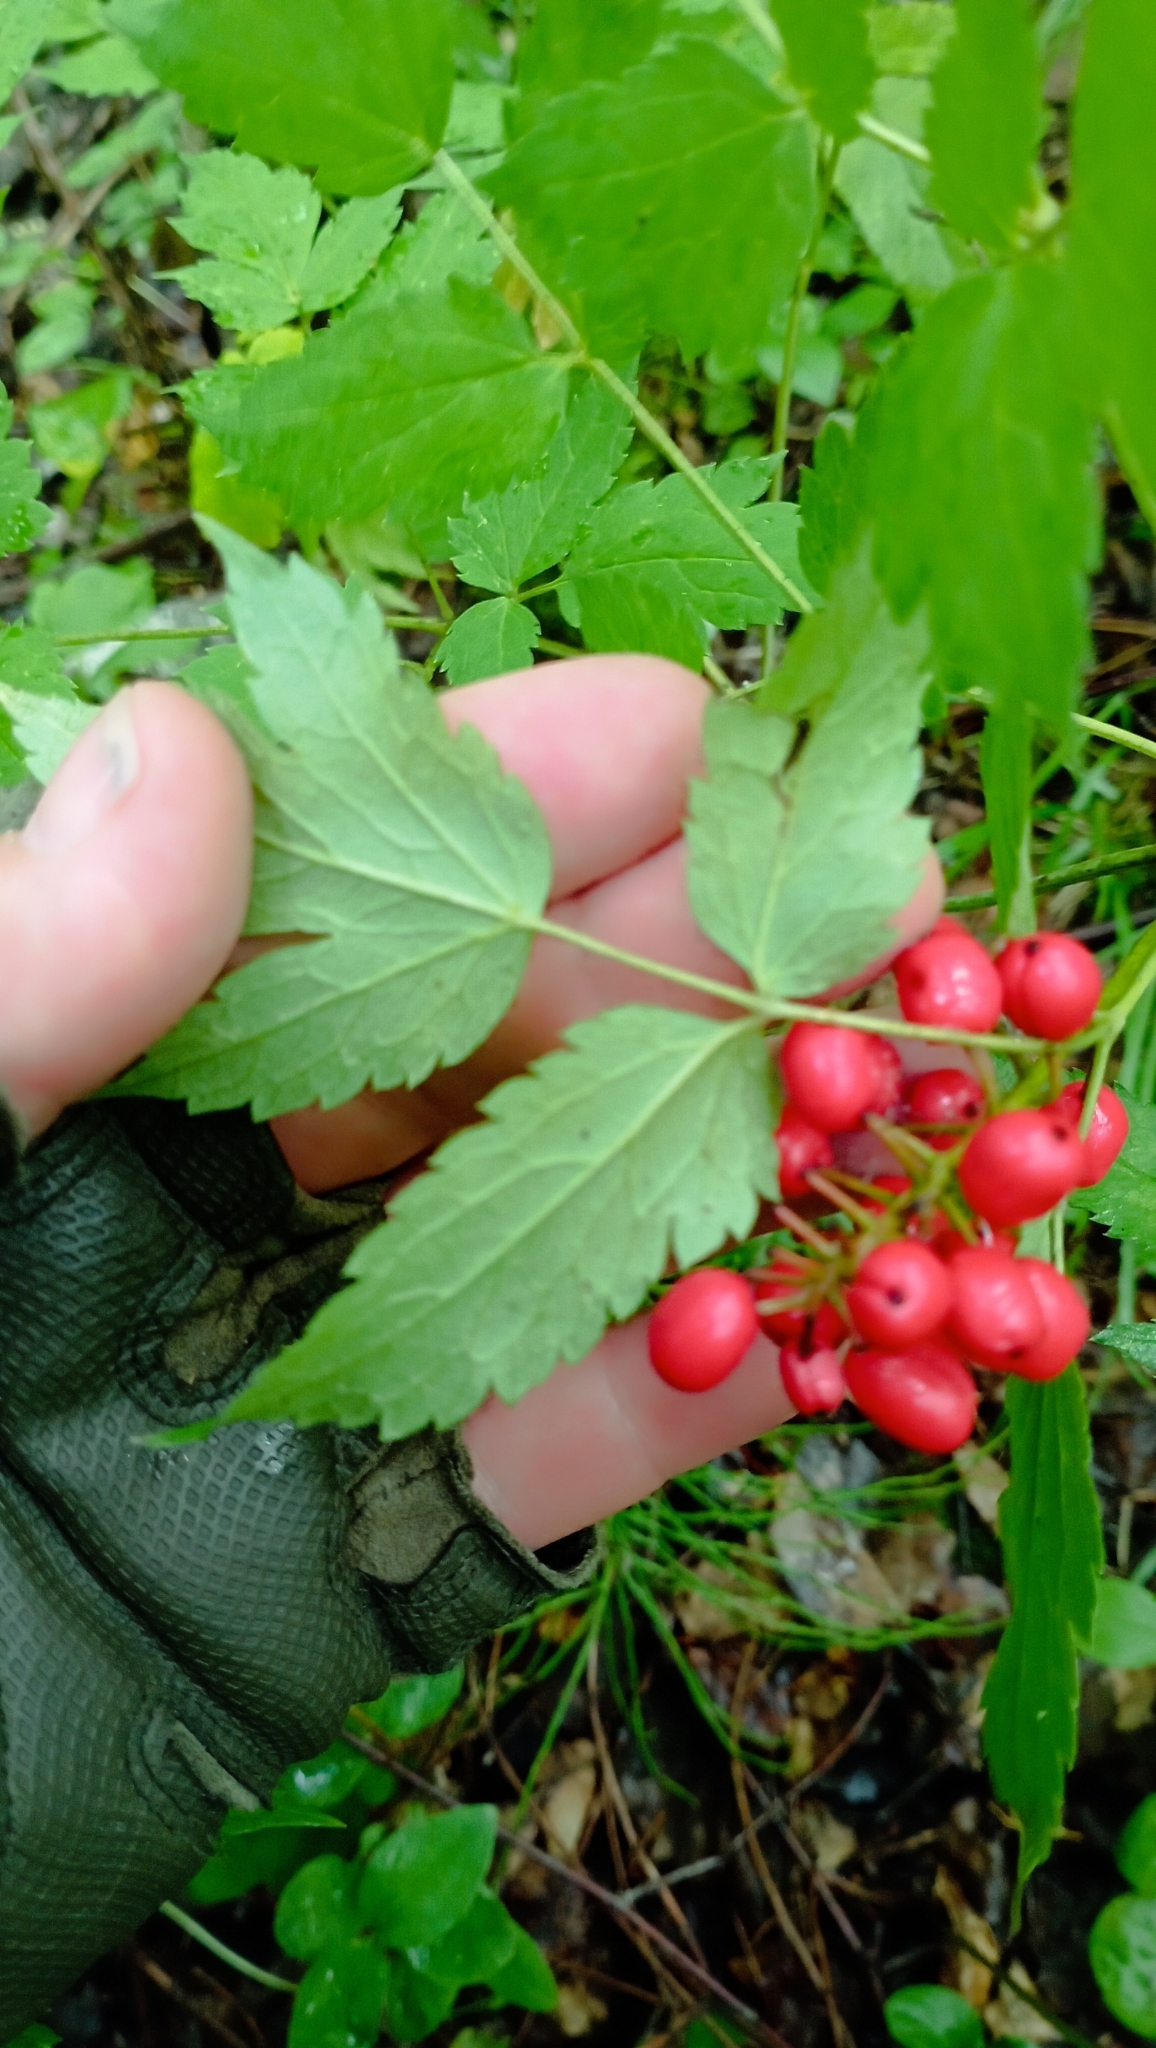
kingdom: Plantae
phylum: Tracheophyta
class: Magnoliopsida
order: Ranunculales
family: Ranunculaceae
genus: Actaea
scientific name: Actaea erythrocarpa
